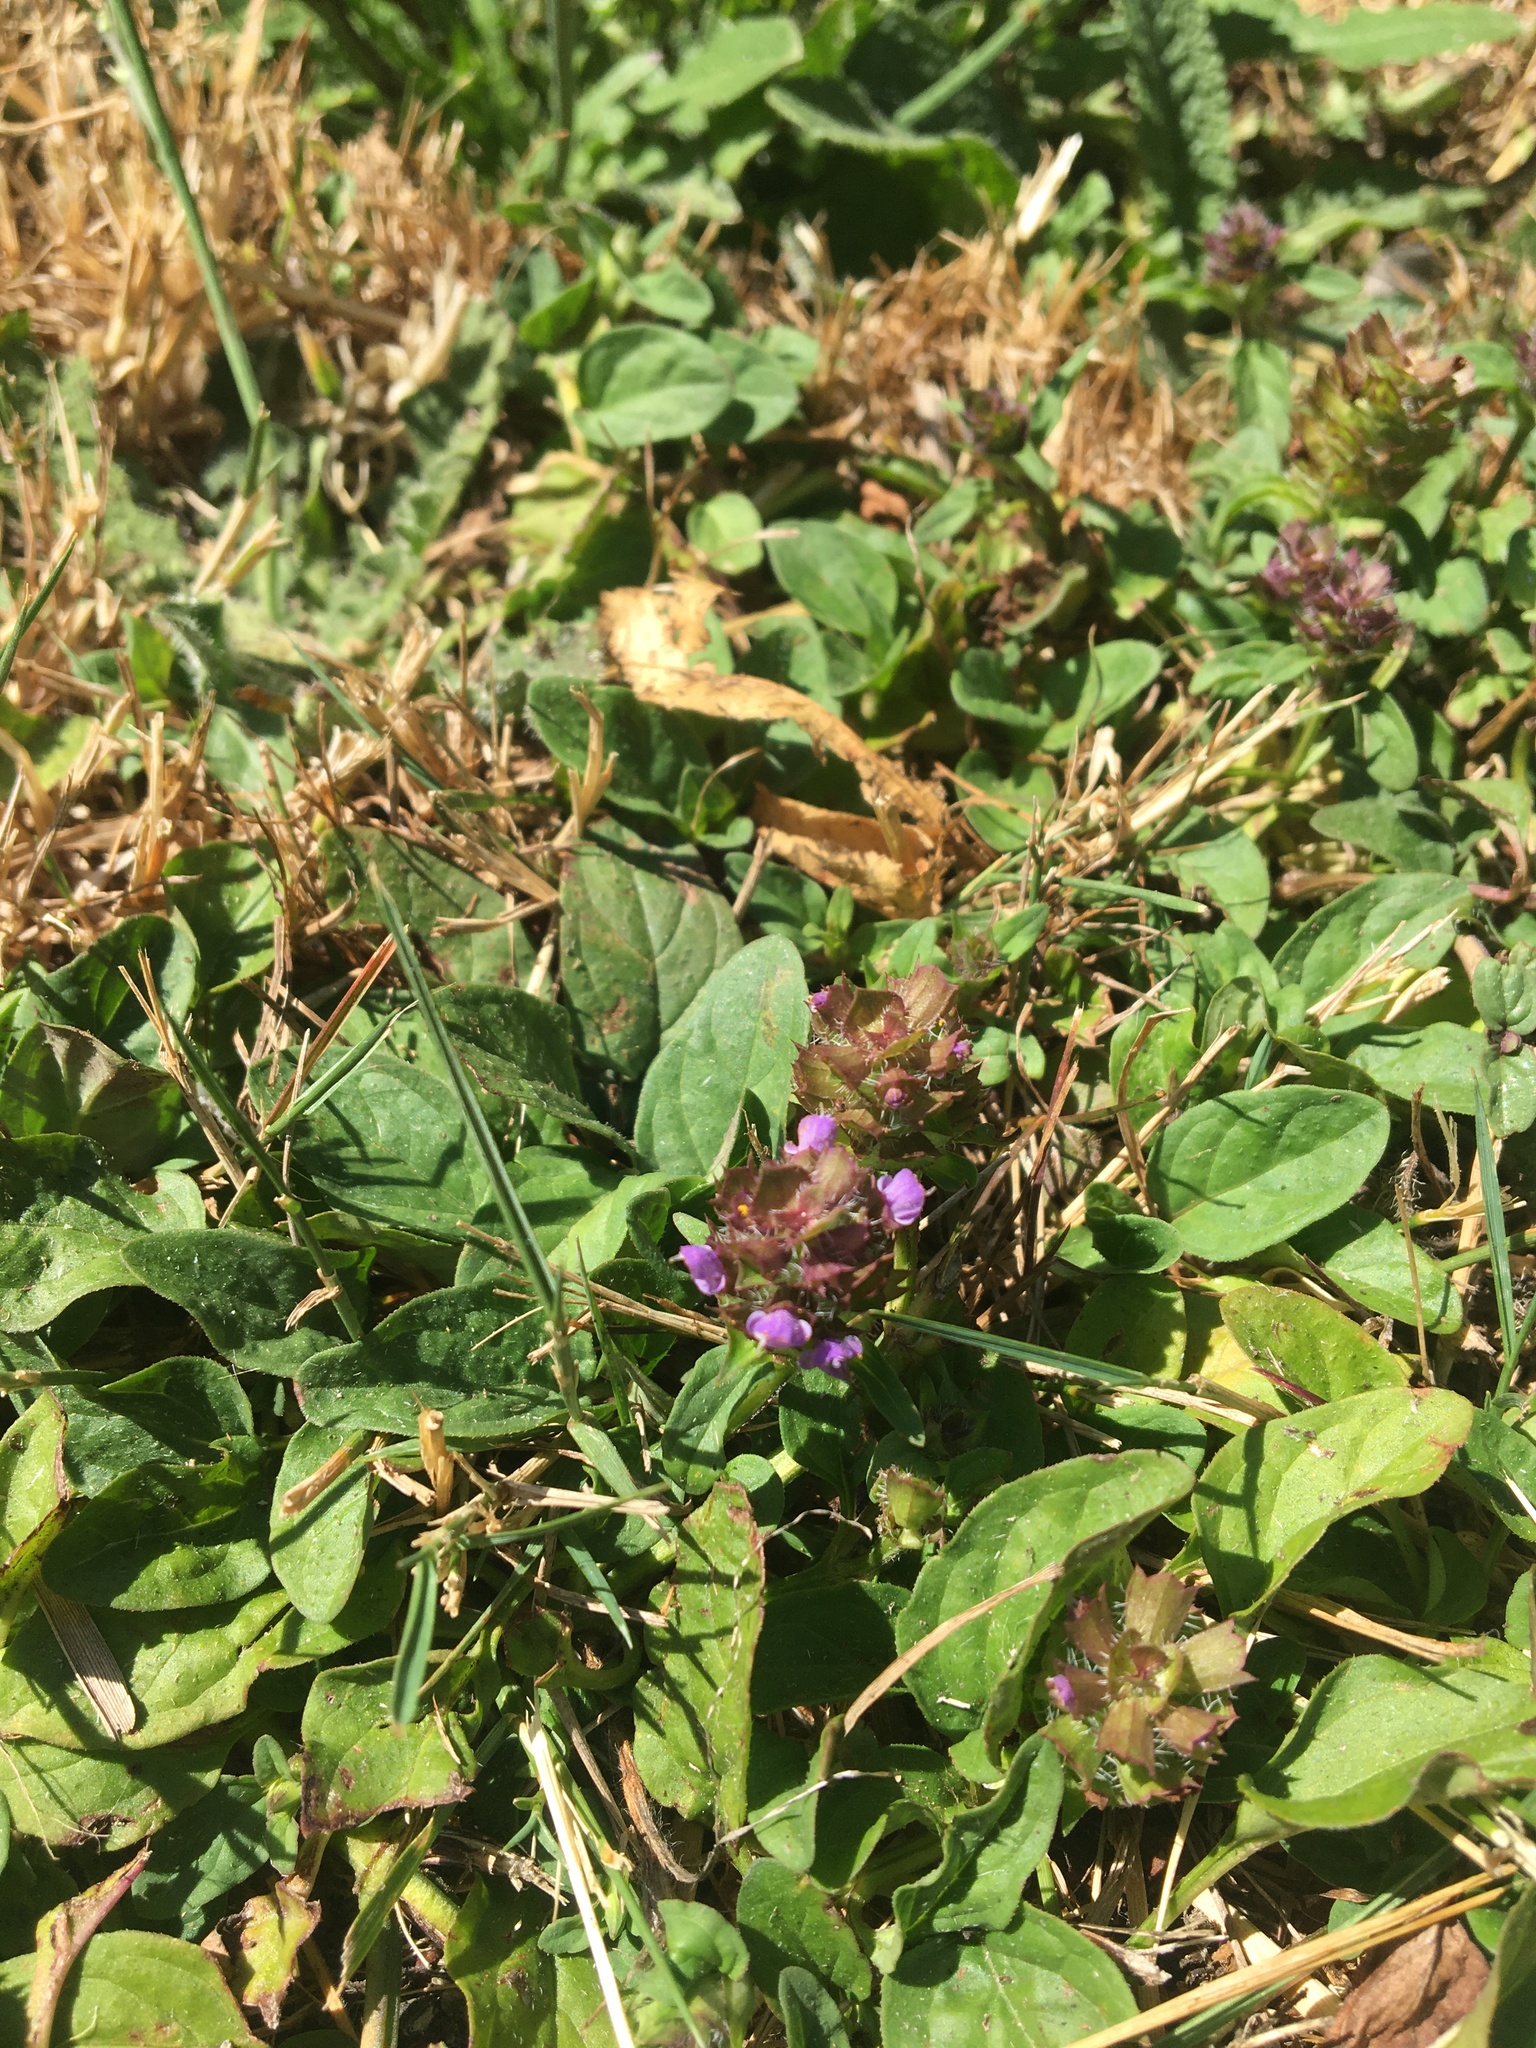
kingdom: Plantae
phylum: Tracheophyta
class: Magnoliopsida
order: Lamiales
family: Lamiaceae
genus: Prunella
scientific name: Prunella vulgaris
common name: Heal-all
